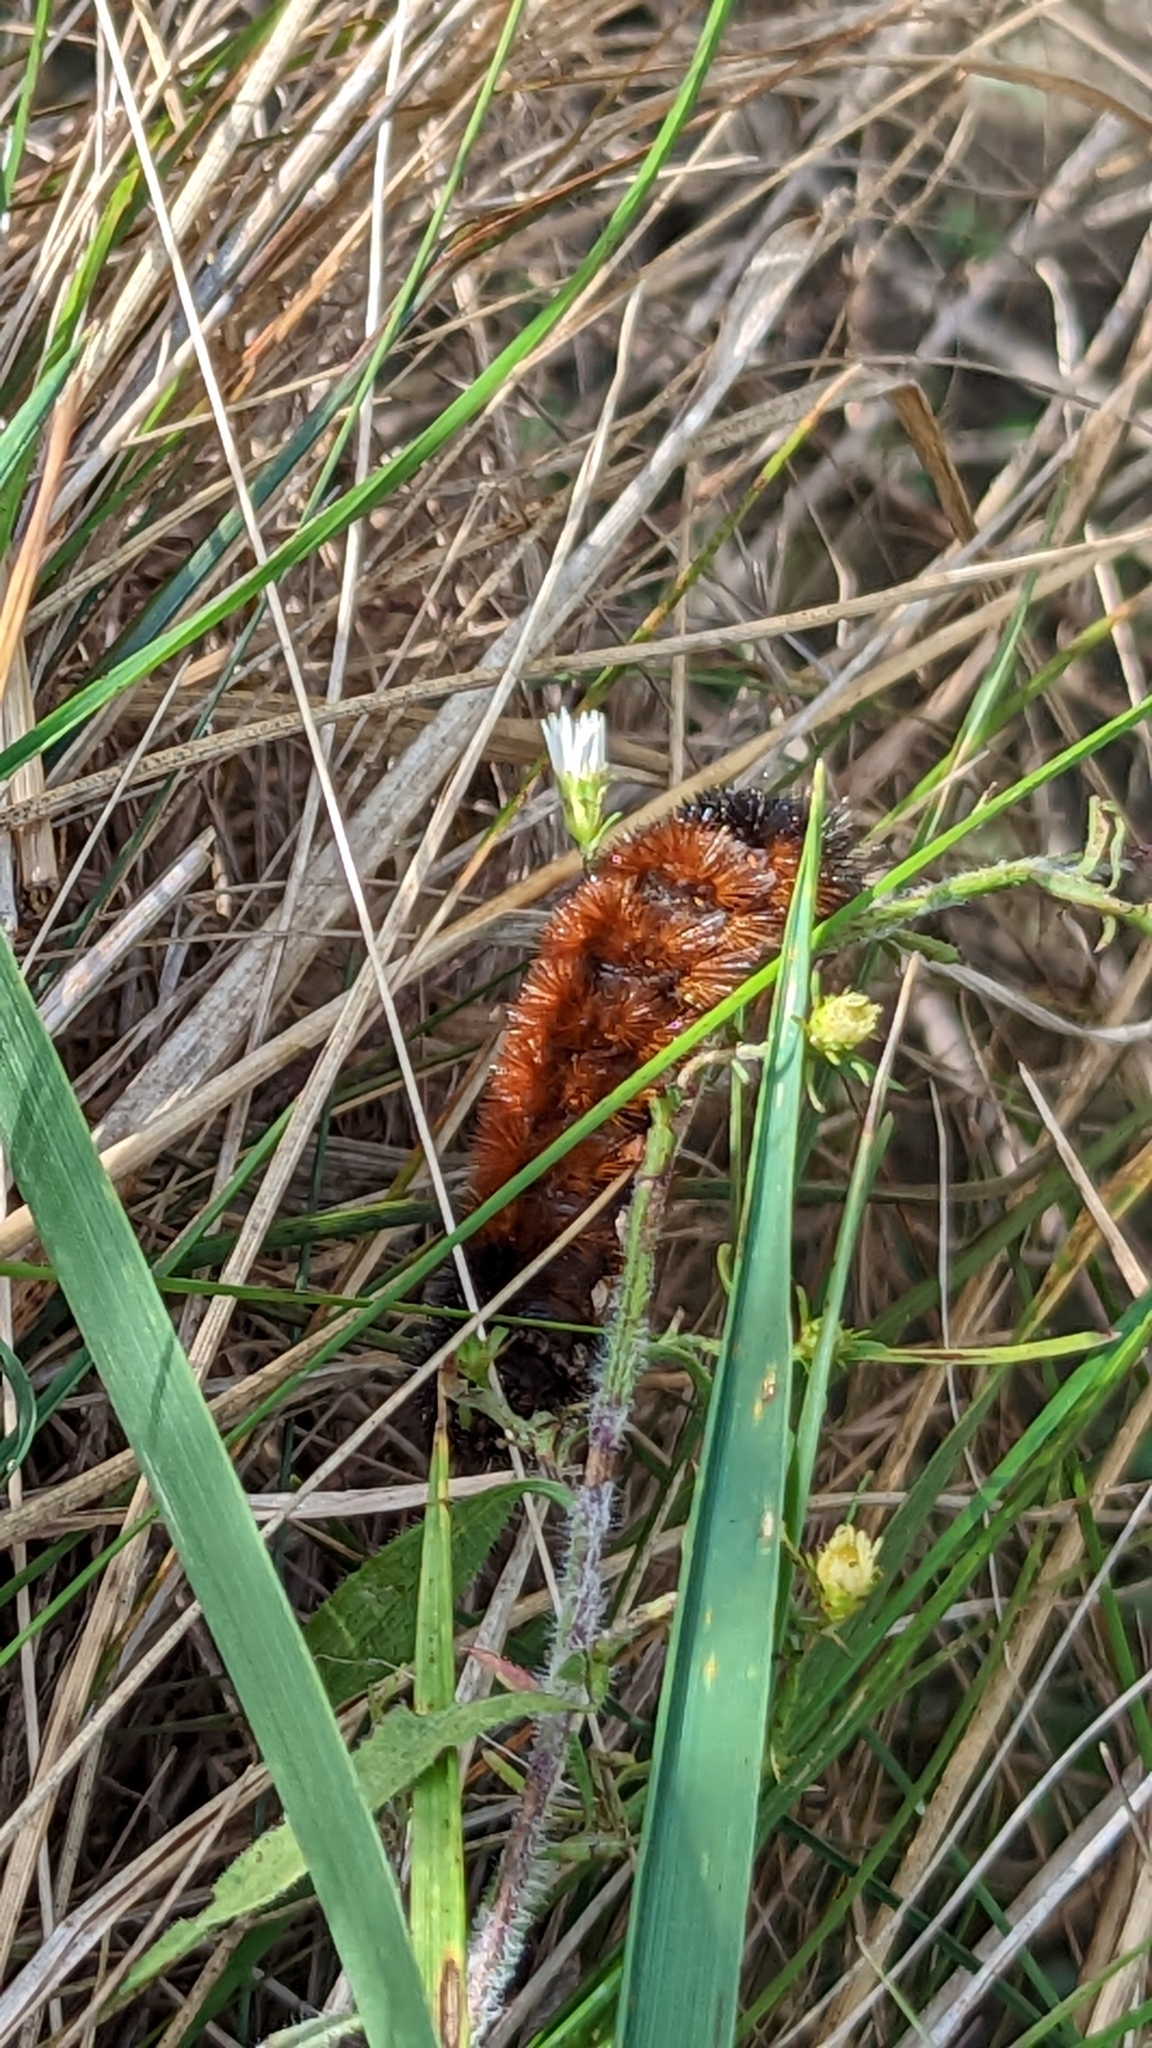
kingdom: Animalia
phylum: Arthropoda
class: Insecta
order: Lepidoptera
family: Erebidae
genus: Pyrrharctia
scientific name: Pyrrharctia isabella
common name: Isabella tiger moth
